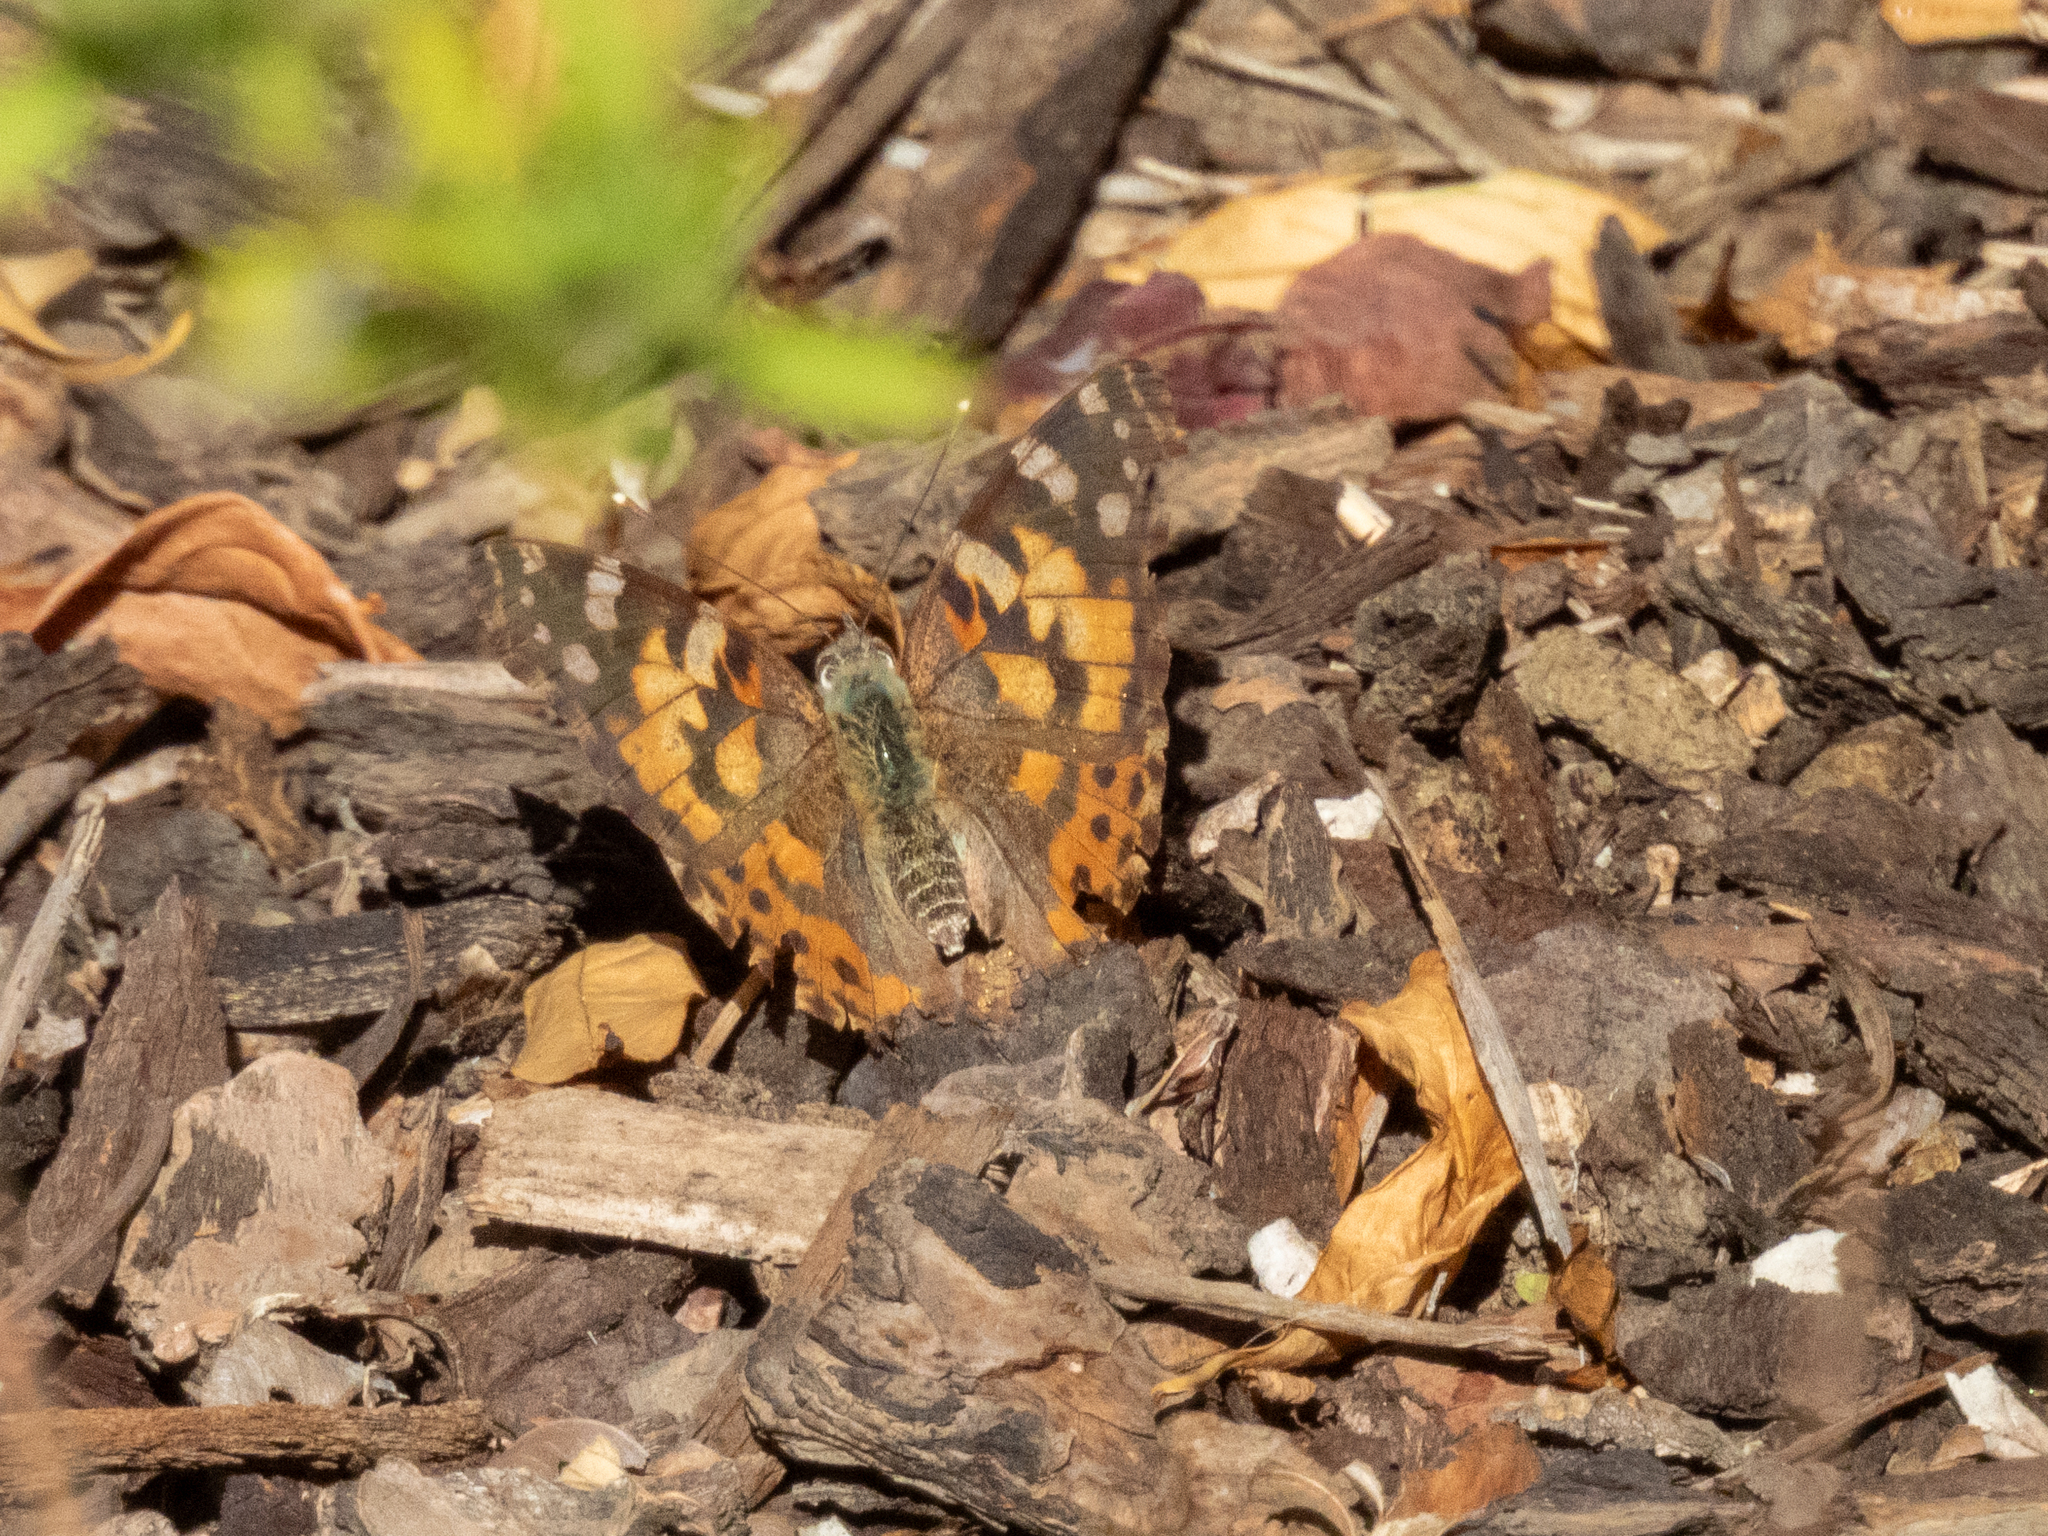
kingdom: Animalia
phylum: Arthropoda
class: Insecta
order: Lepidoptera
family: Nymphalidae
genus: Vanessa
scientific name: Vanessa cardui
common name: Painted lady
